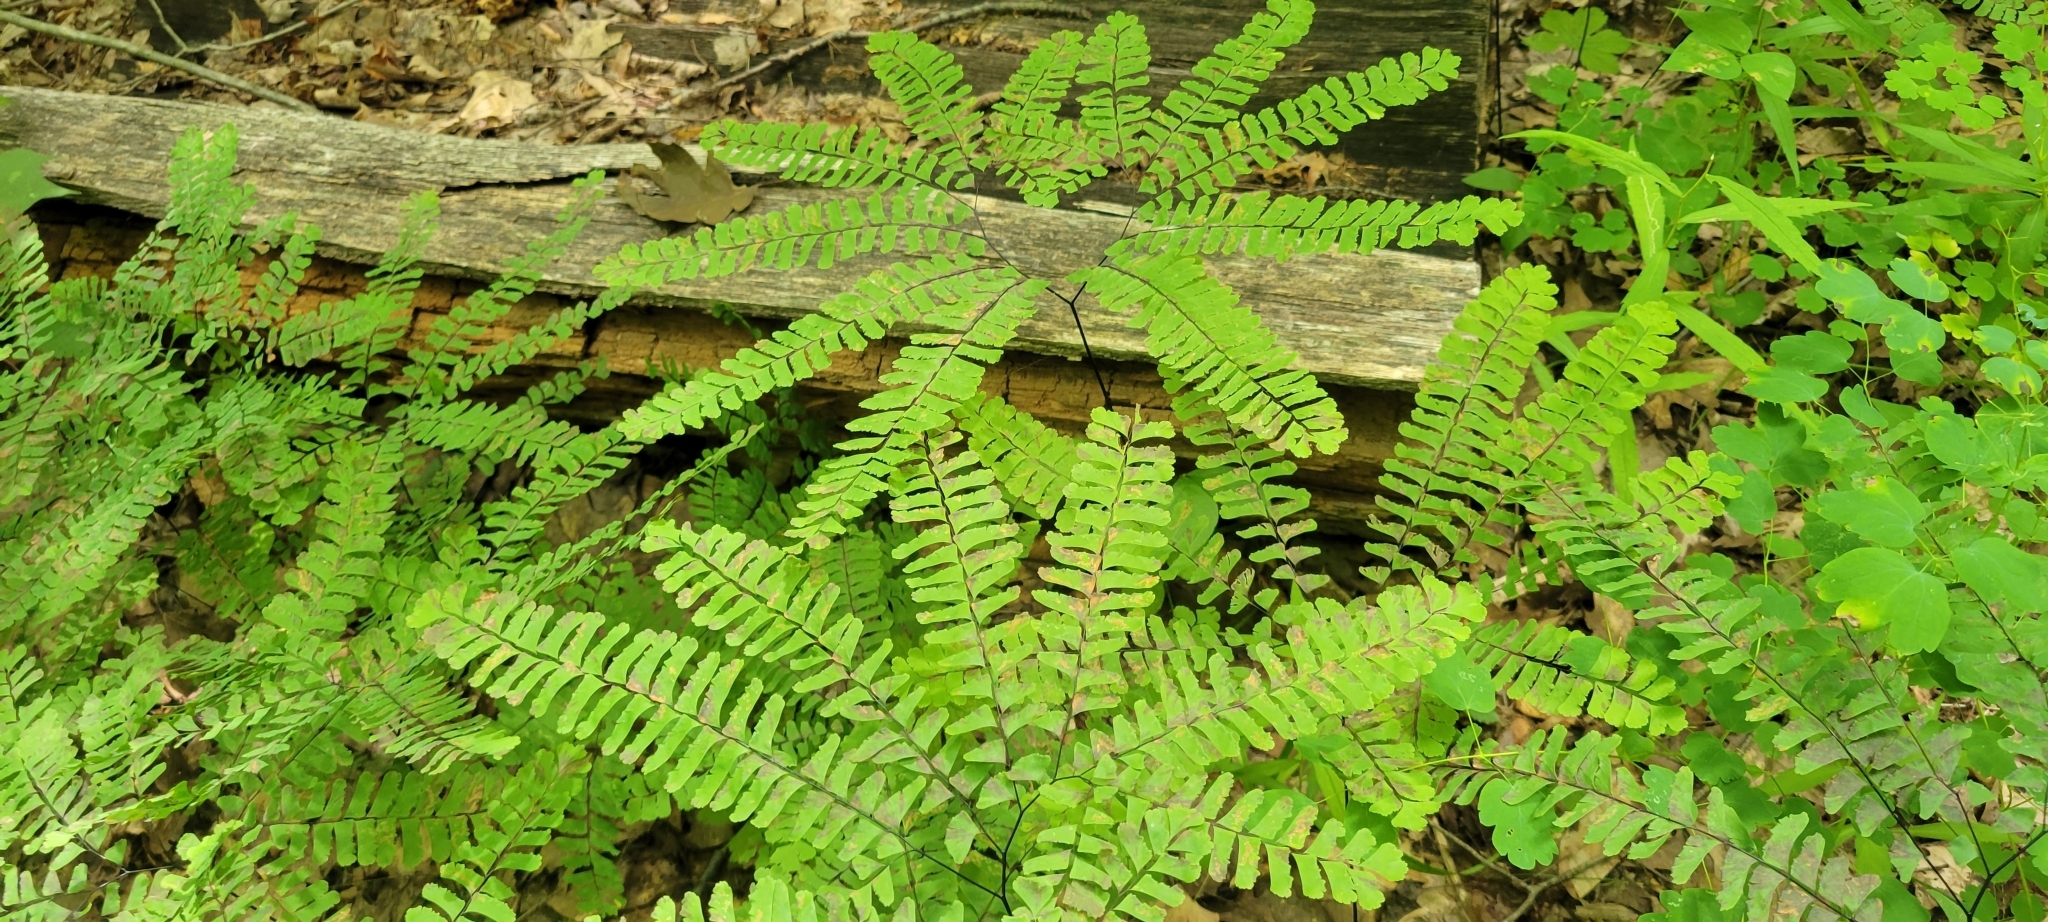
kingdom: Plantae
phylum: Tracheophyta
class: Polypodiopsida
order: Polypodiales
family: Pteridaceae
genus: Adiantum
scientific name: Adiantum pedatum
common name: Five-finger fern
